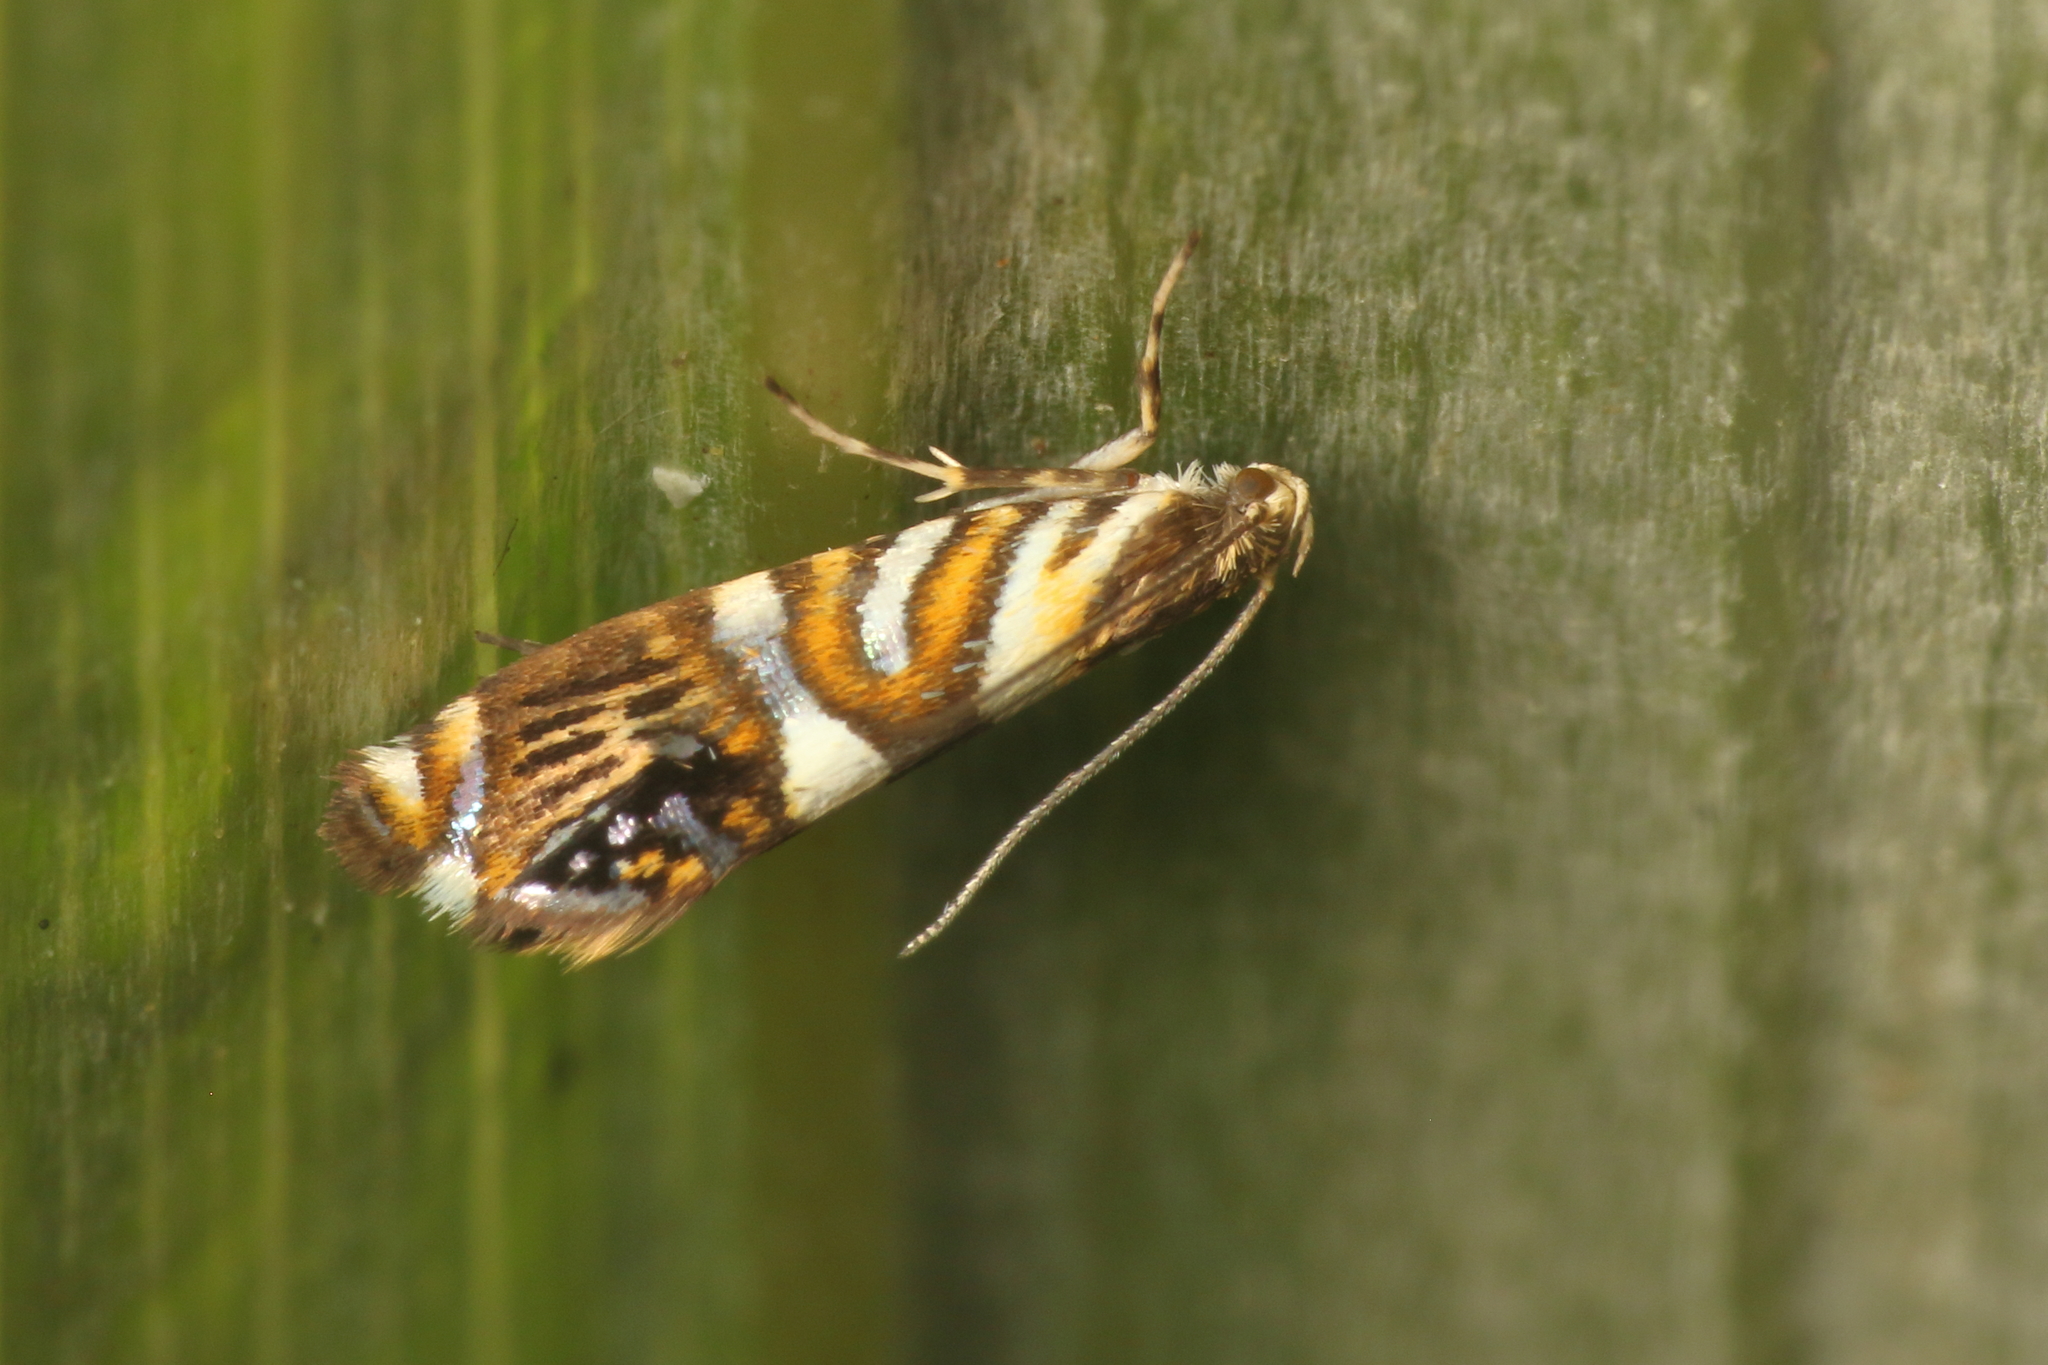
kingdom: Animalia
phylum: Arthropoda
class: Insecta
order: Lepidoptera
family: Plutellidae
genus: Protosynaema
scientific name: Protosynaema hymenopis
